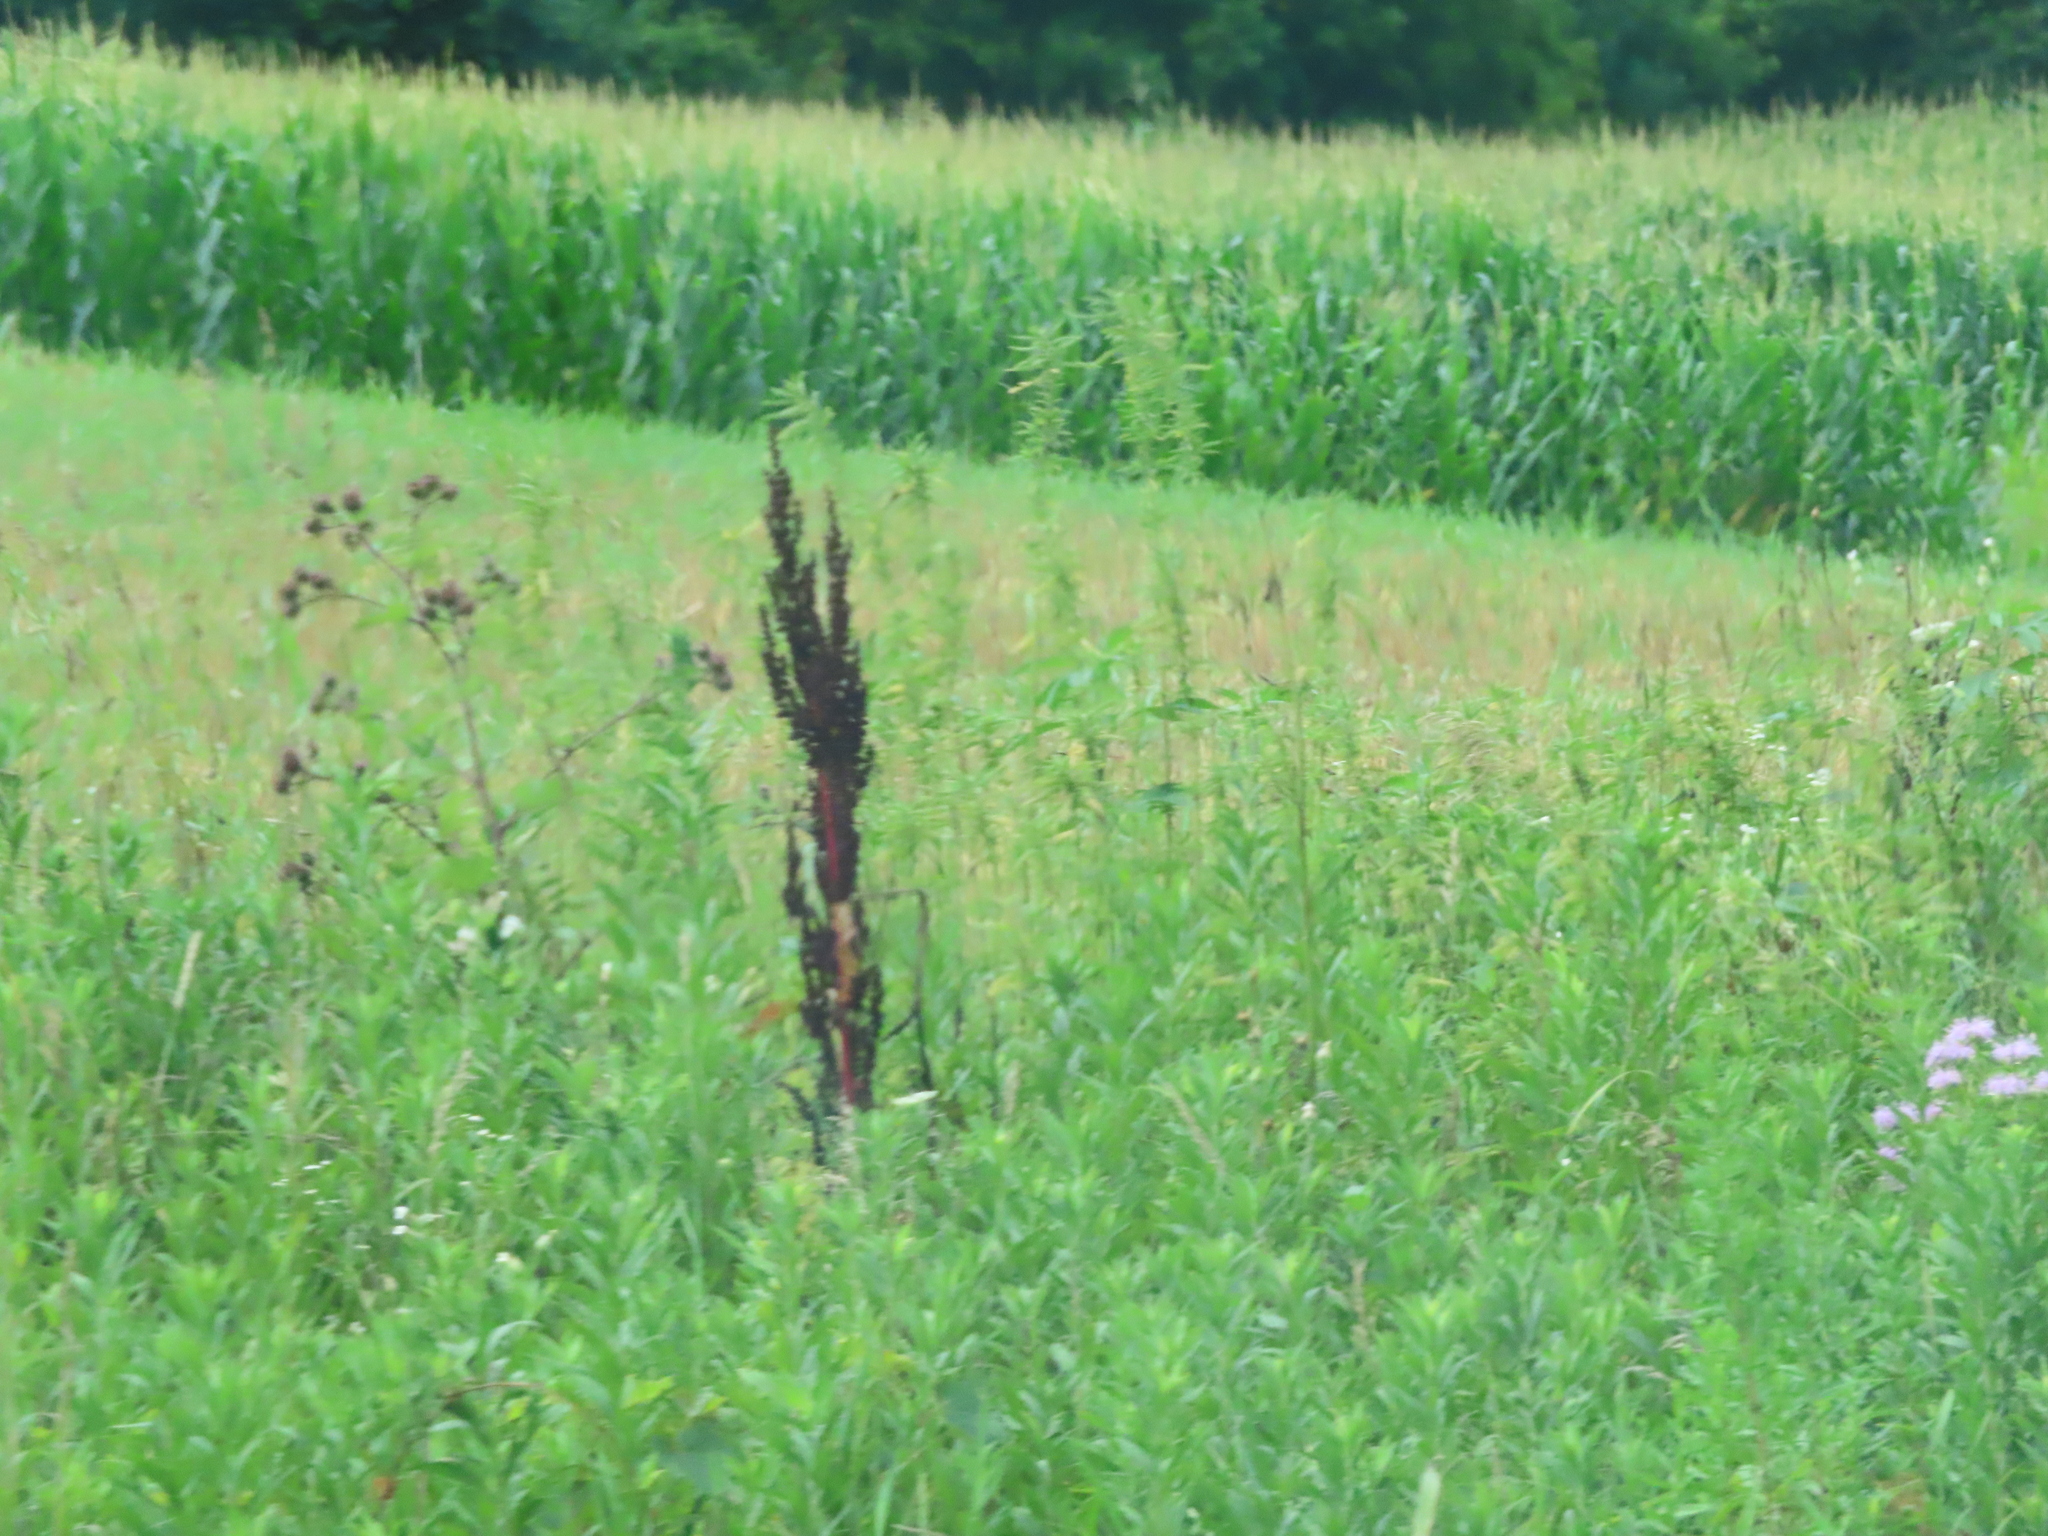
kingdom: Plantae
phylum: Tracheophyta
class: Magnoliopsida
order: Asterales
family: Asteraceae
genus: Arctium
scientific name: Arctium lappa
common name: Greater burdock
